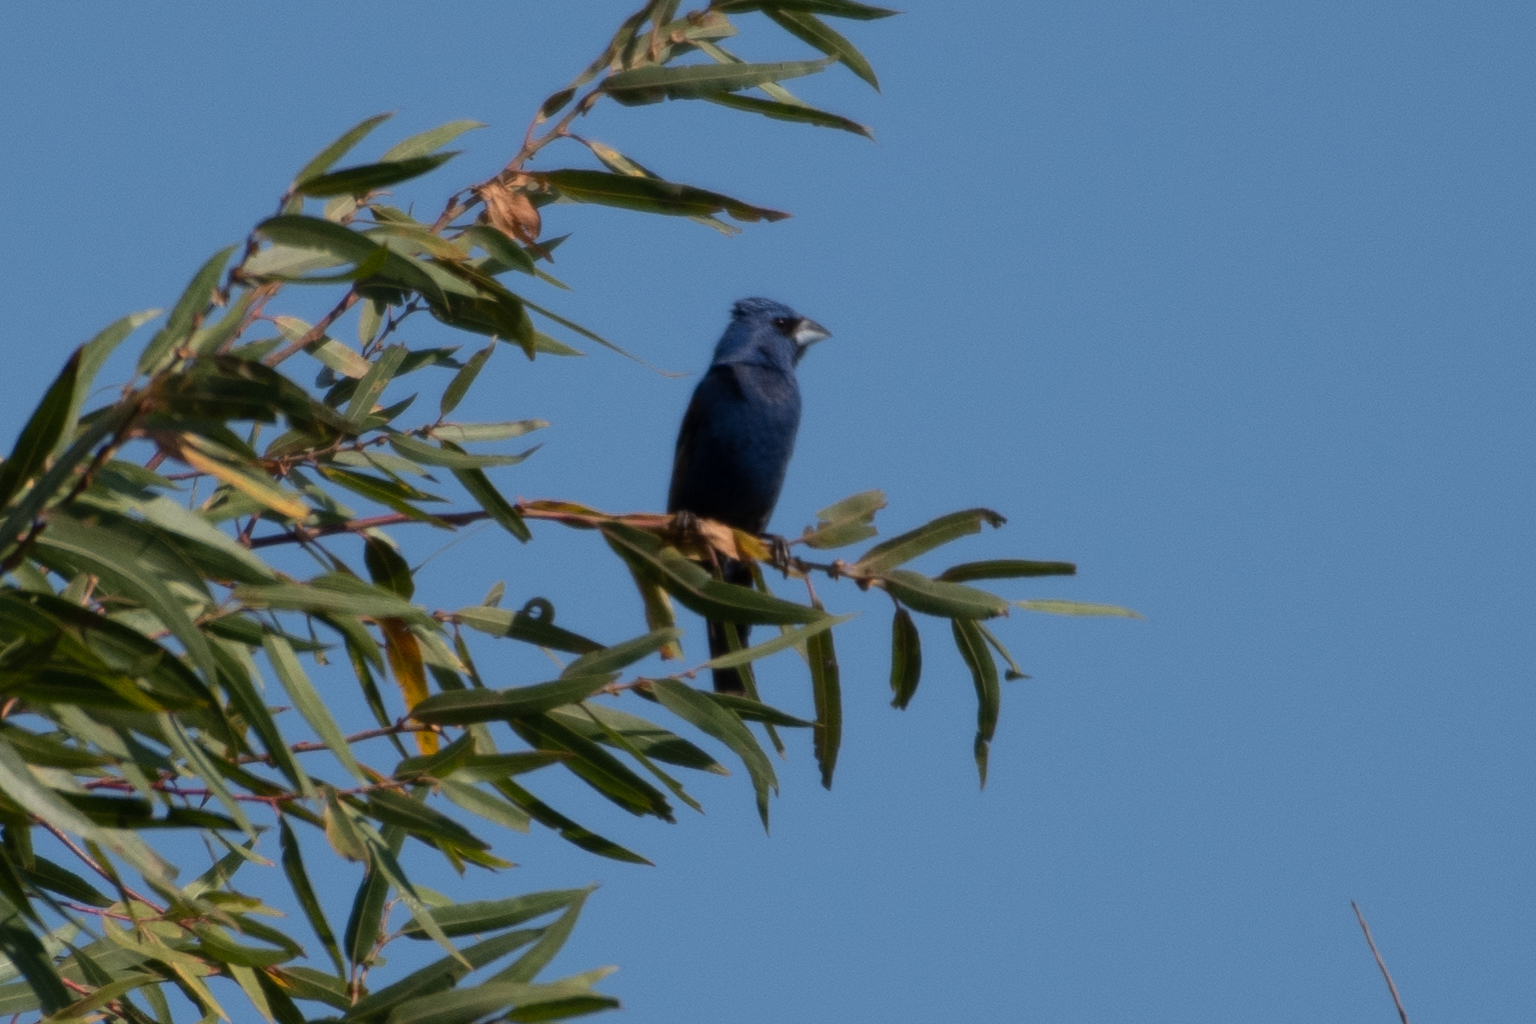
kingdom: Animalia
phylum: Chordata
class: Aves
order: Passeriformes
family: Cardinalidae
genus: Passerina
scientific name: Passerina caerulea
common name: Blue grosbeak
